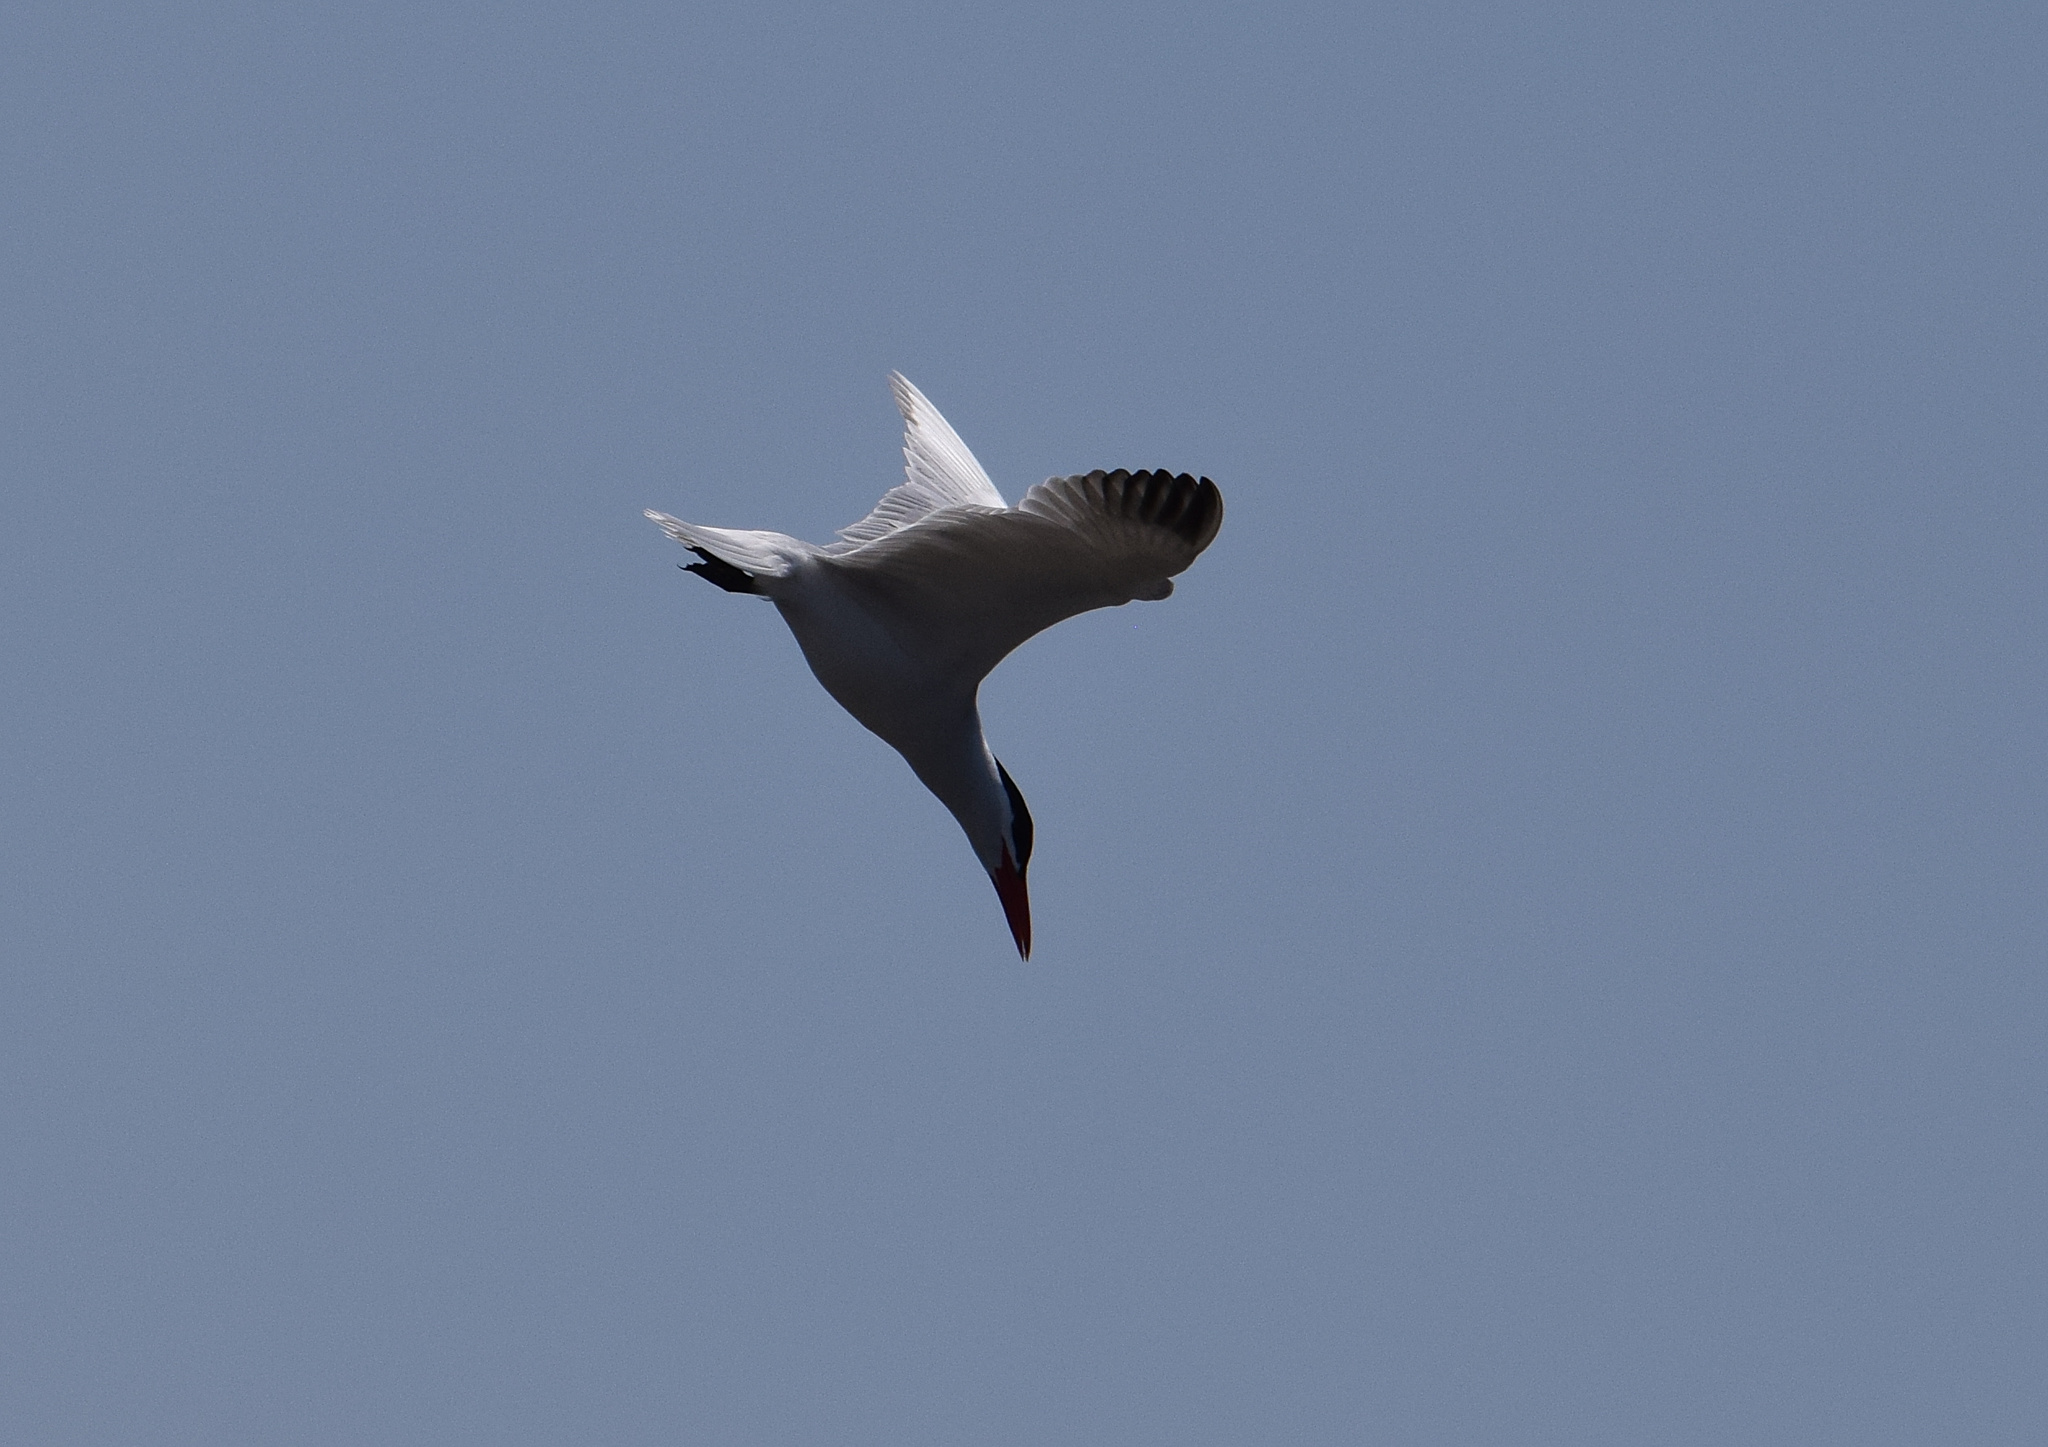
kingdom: Animalia
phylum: Chordata
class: Aves
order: Charadriiformes
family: Laridae
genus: Hydroprogne
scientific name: Hydroprogne caspia
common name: Caspian tern
